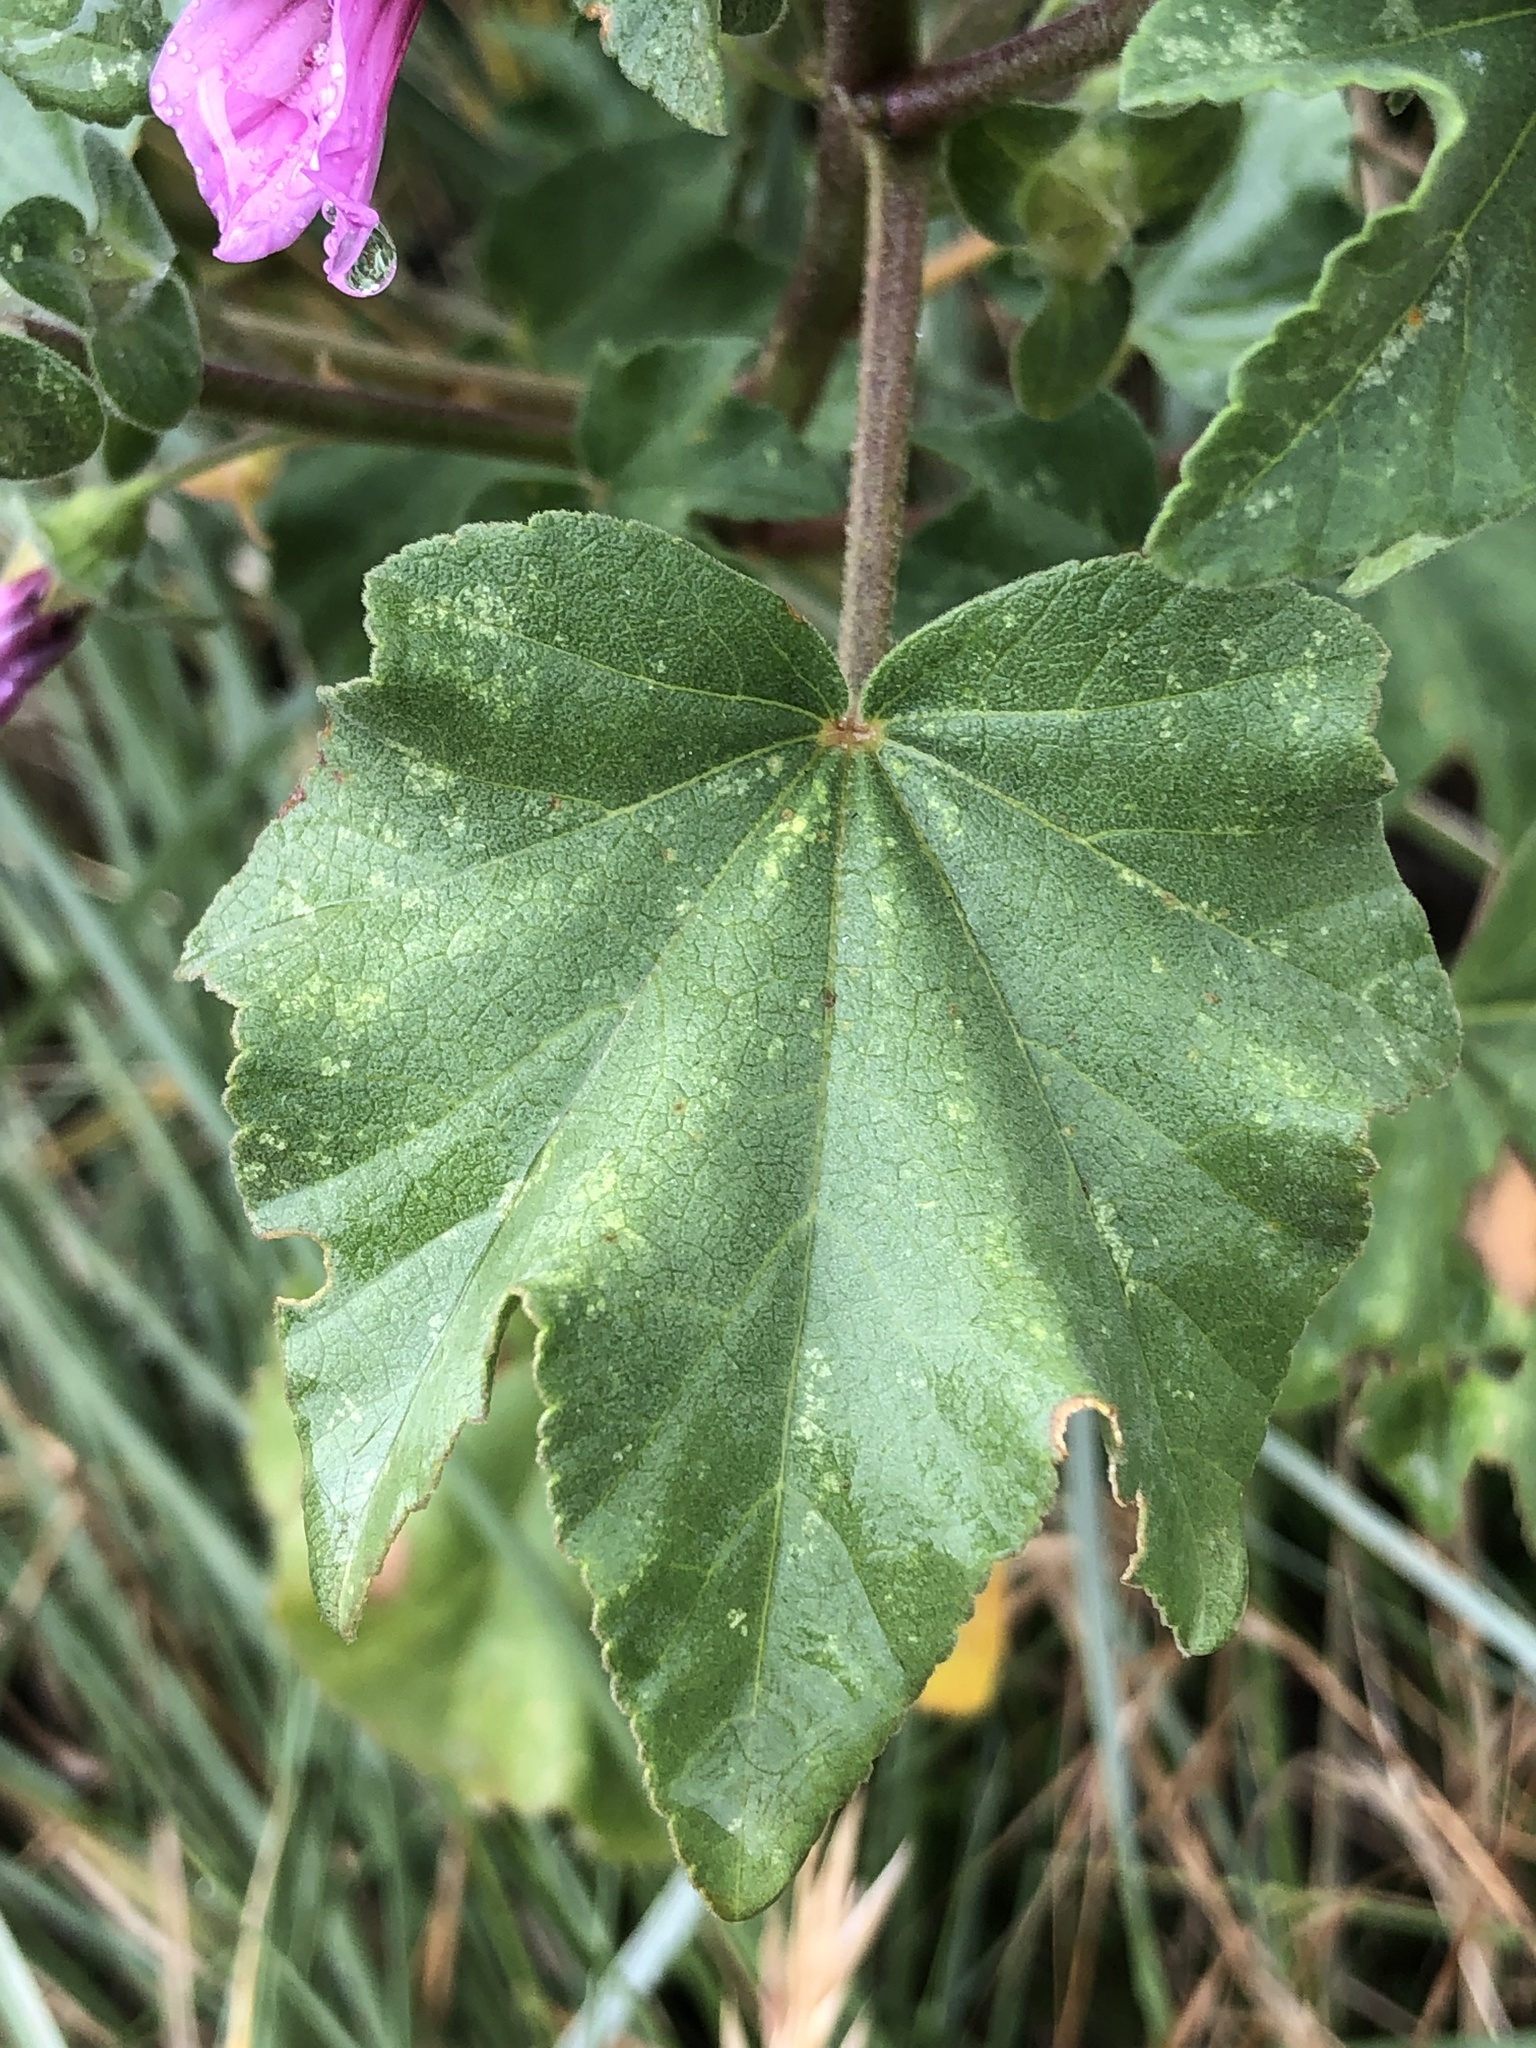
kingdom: Plantae
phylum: Tracheophyta
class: Magnoliopsida
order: Malvales
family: Malvaceae
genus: Malva
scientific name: Malva arborea
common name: Tree mallow
